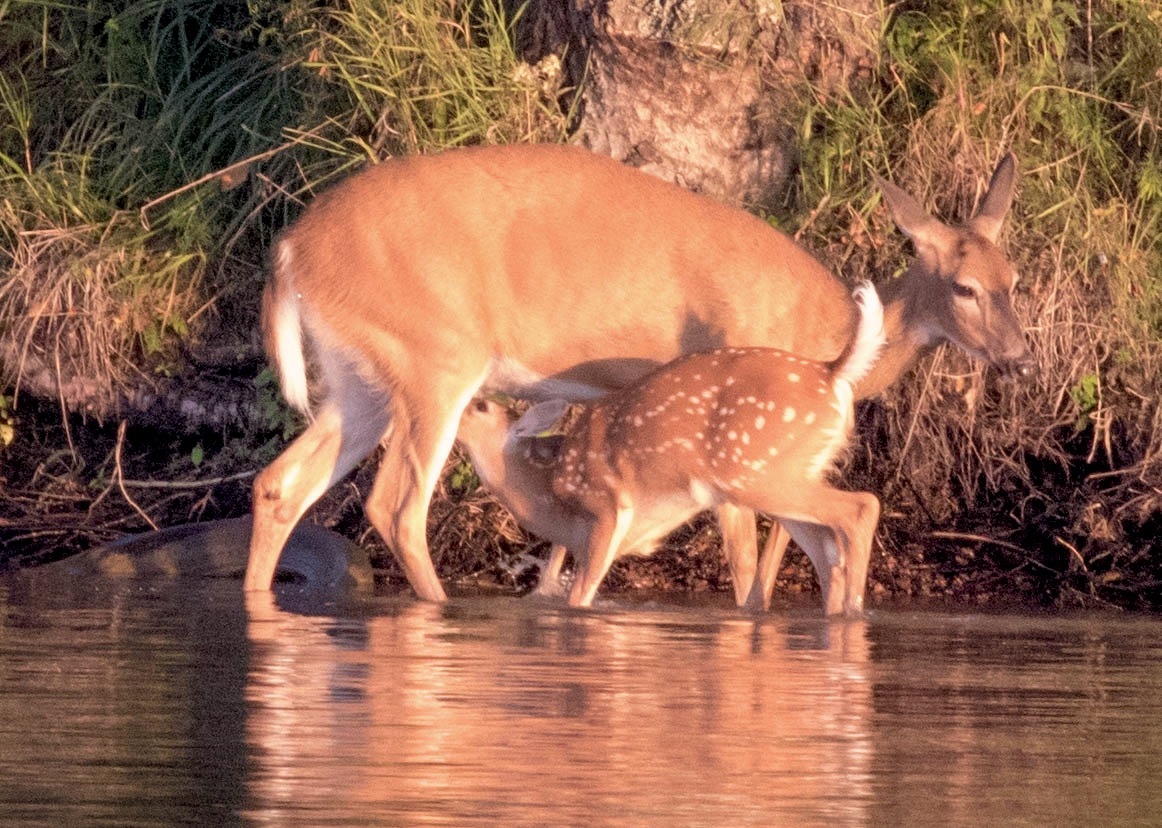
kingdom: Animalia
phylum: Chordata
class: Mammalia
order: Artiodactyla
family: Cervidae
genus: Odocoileus
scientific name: Odocoileus virginianus
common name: White-tailed deer
